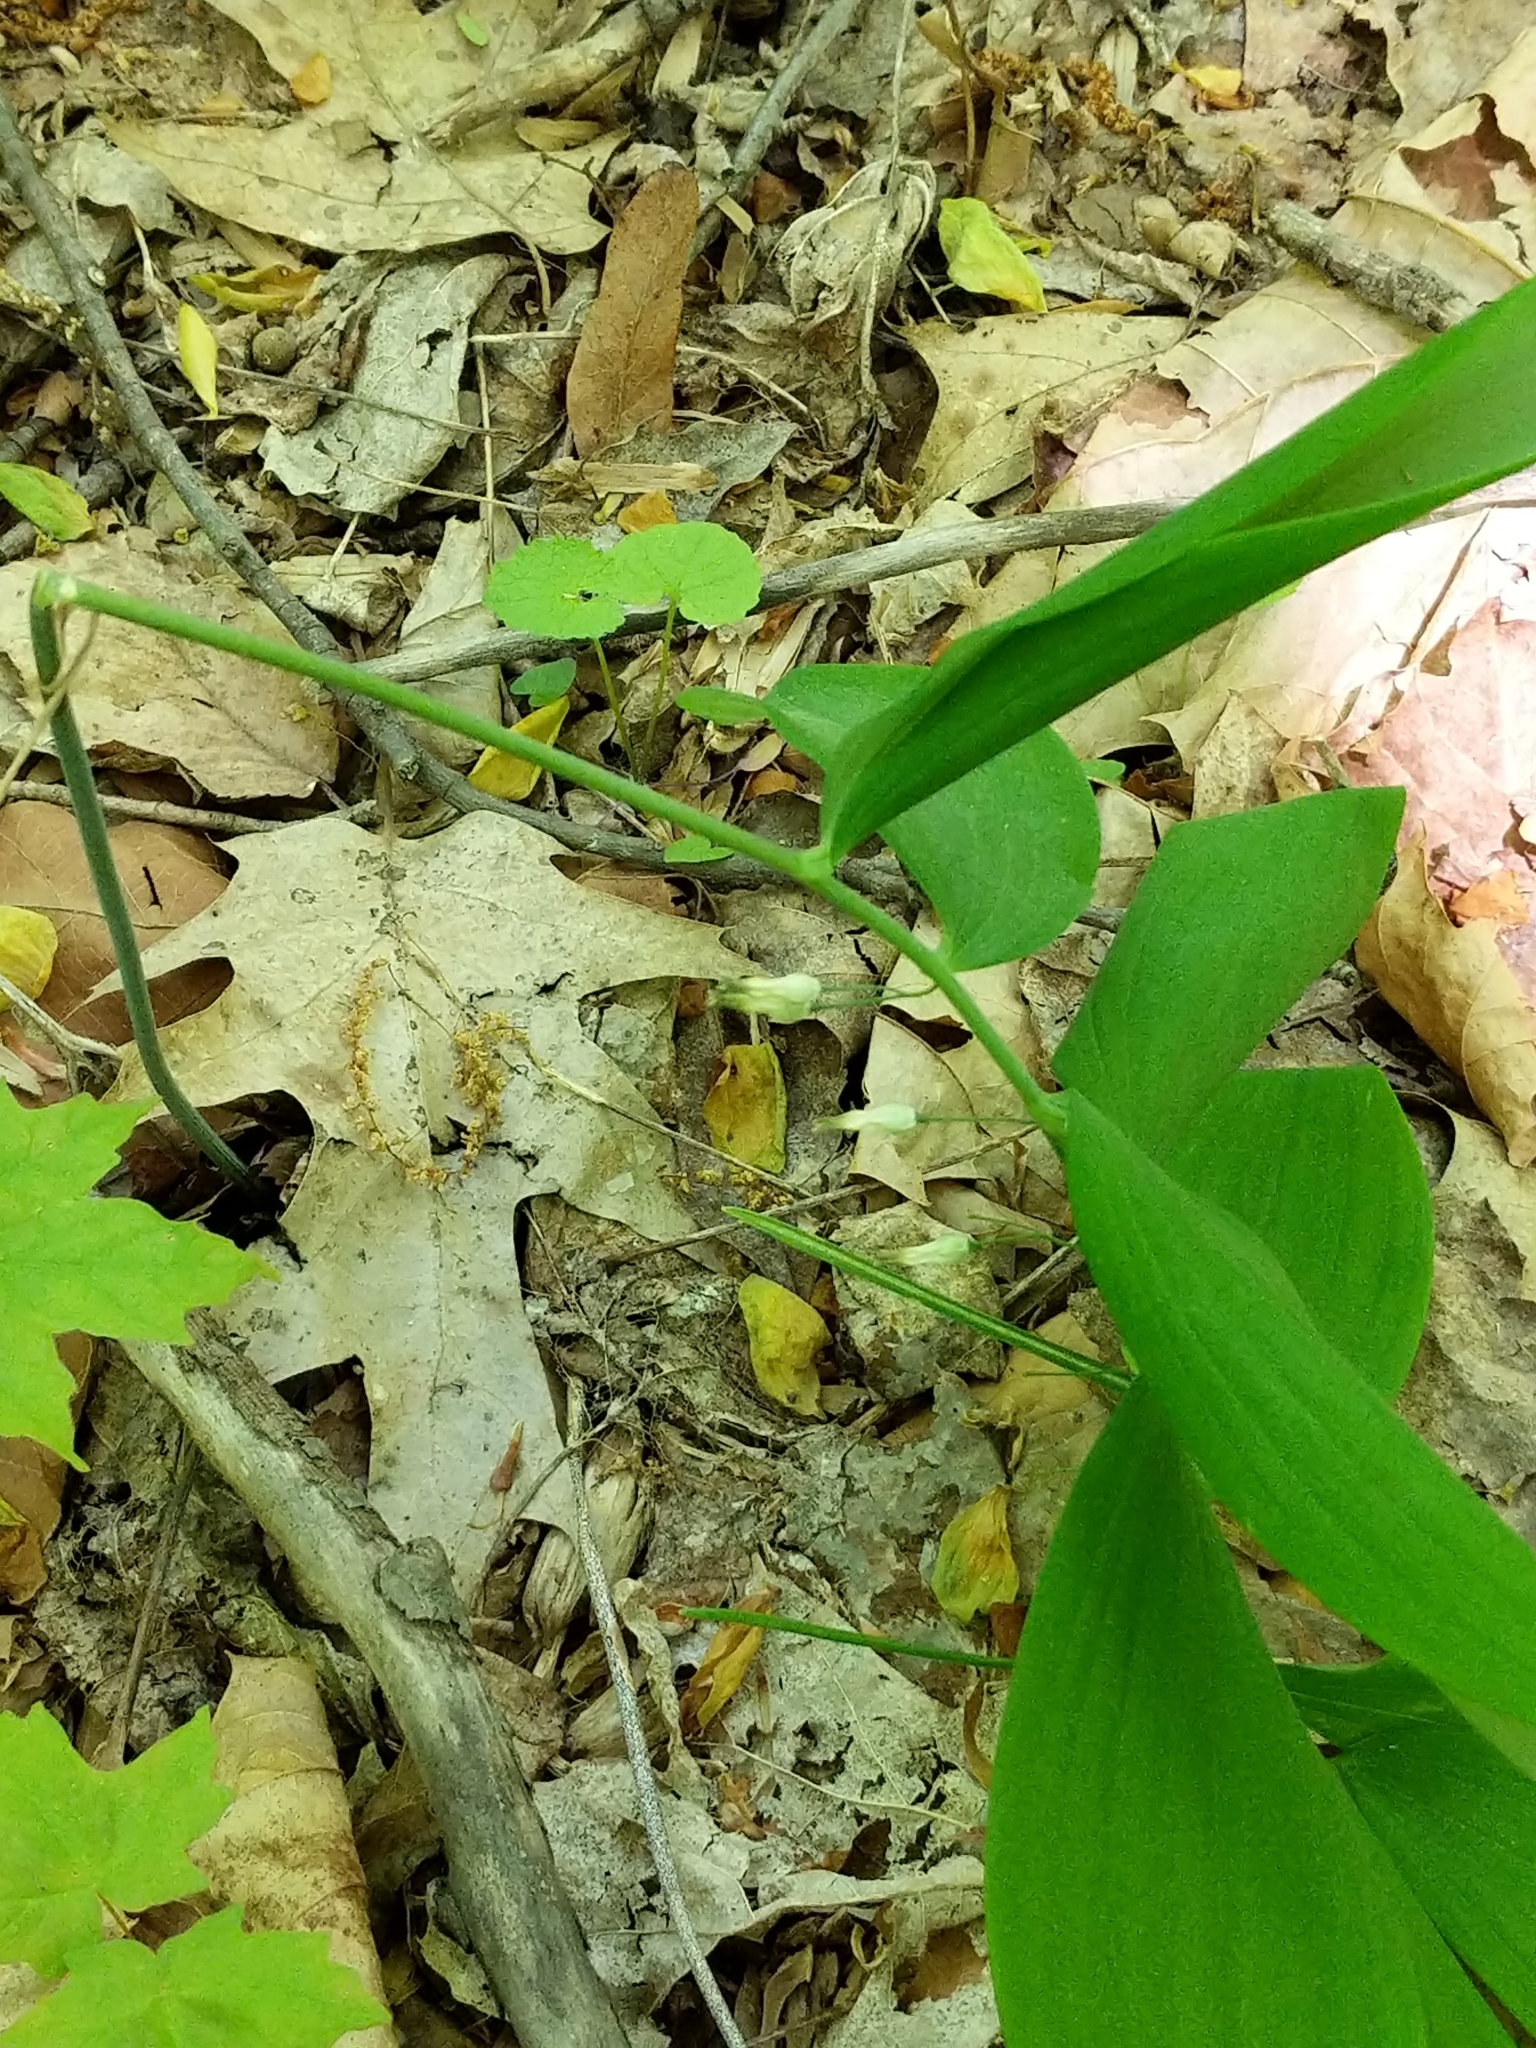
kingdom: Plantae
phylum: Tracheophyta
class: Liliopsida
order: Asparagales
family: Asparagaceae
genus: Polygonatum
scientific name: Polygonatum pubescens
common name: Downy solomon's seal
